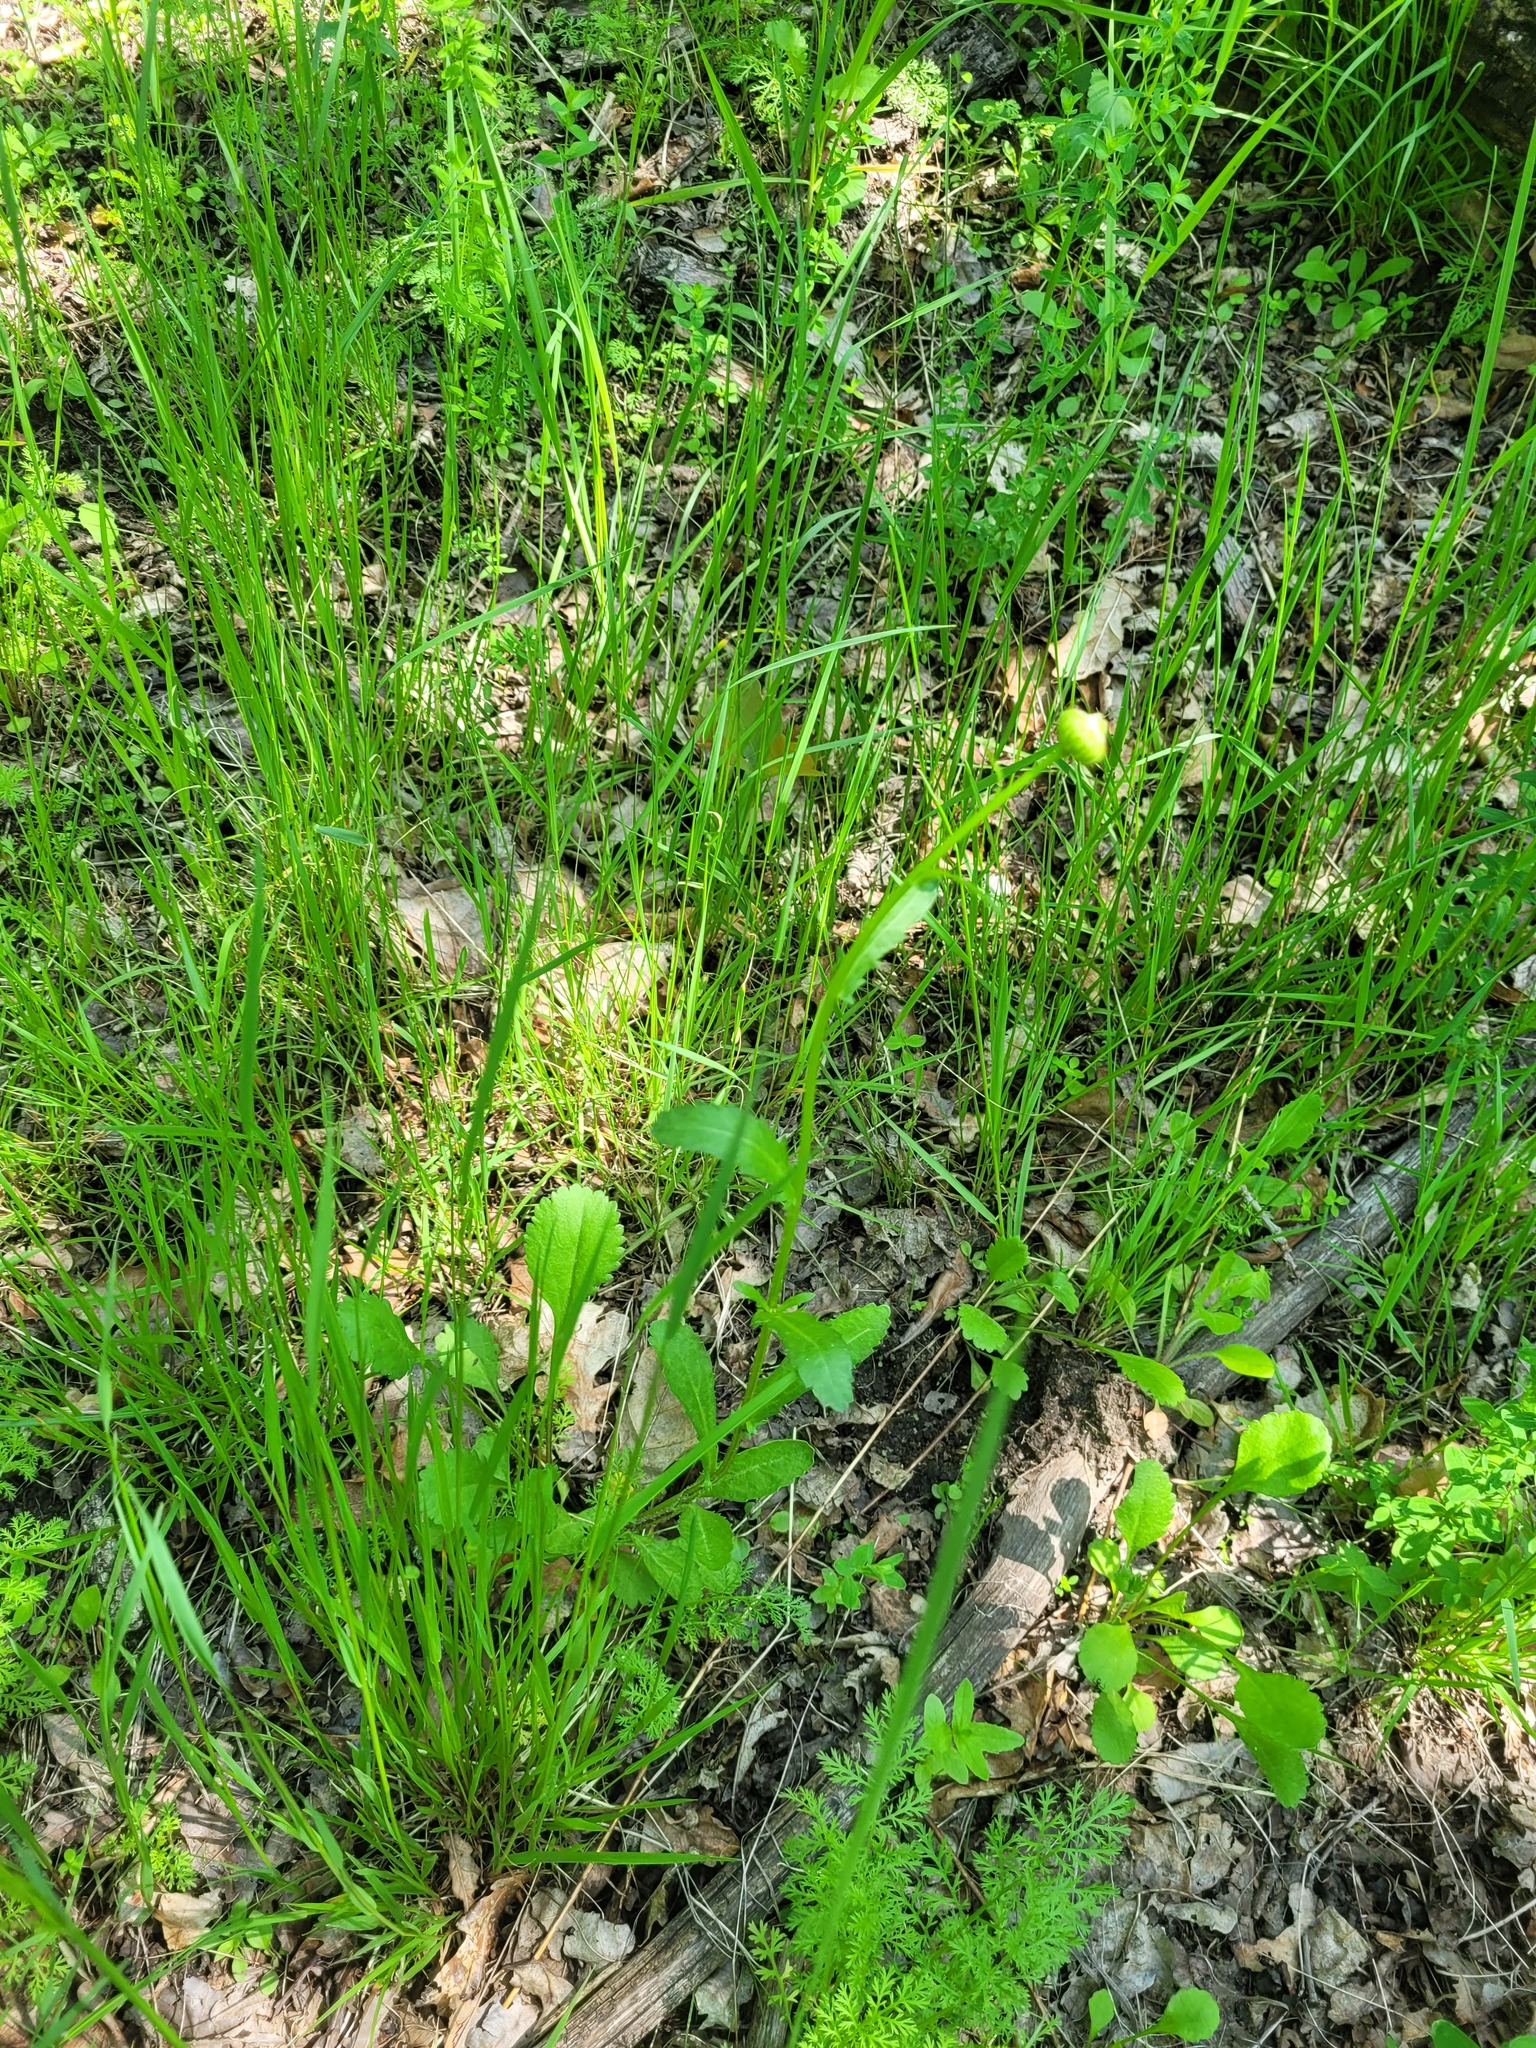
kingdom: Plantae
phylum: Tracheophyta
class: Magnoliopsida
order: Asterales
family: Asteraceae
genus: Leucanthemum
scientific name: Leucanthemum vulgare
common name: Oxeye daisy
